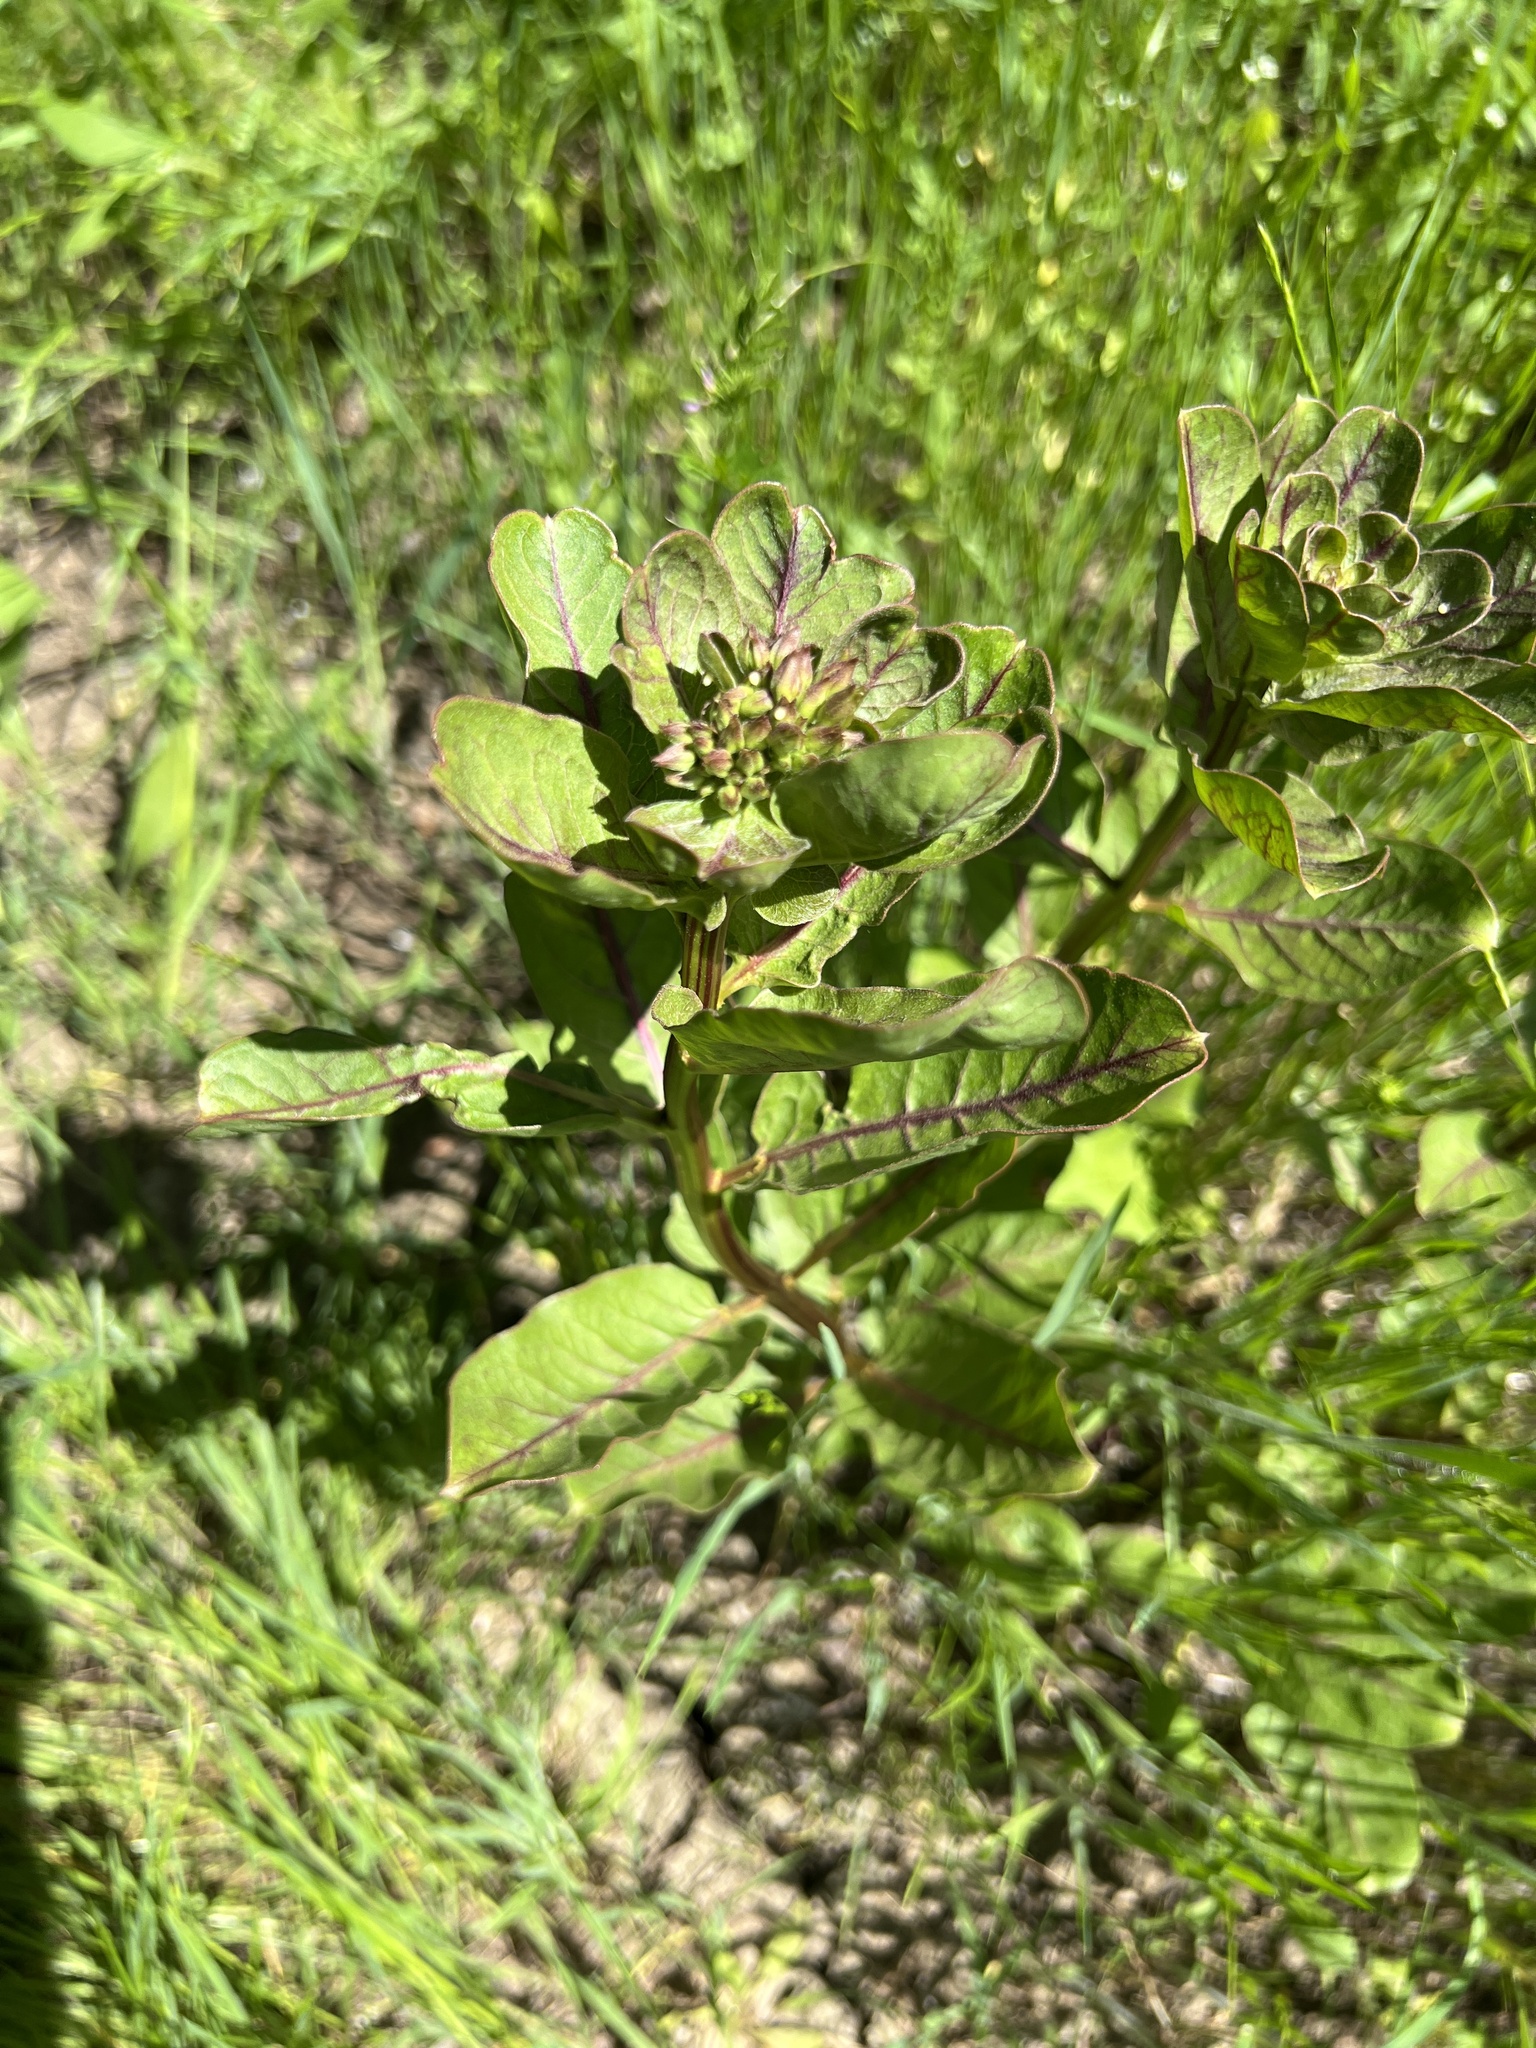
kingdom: Plantae
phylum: Tracheophyta
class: Magnoliopsida
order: Gentianales
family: Apocynaceae
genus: Asclepias
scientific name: Asclepias viridis
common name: Antelope-horns
